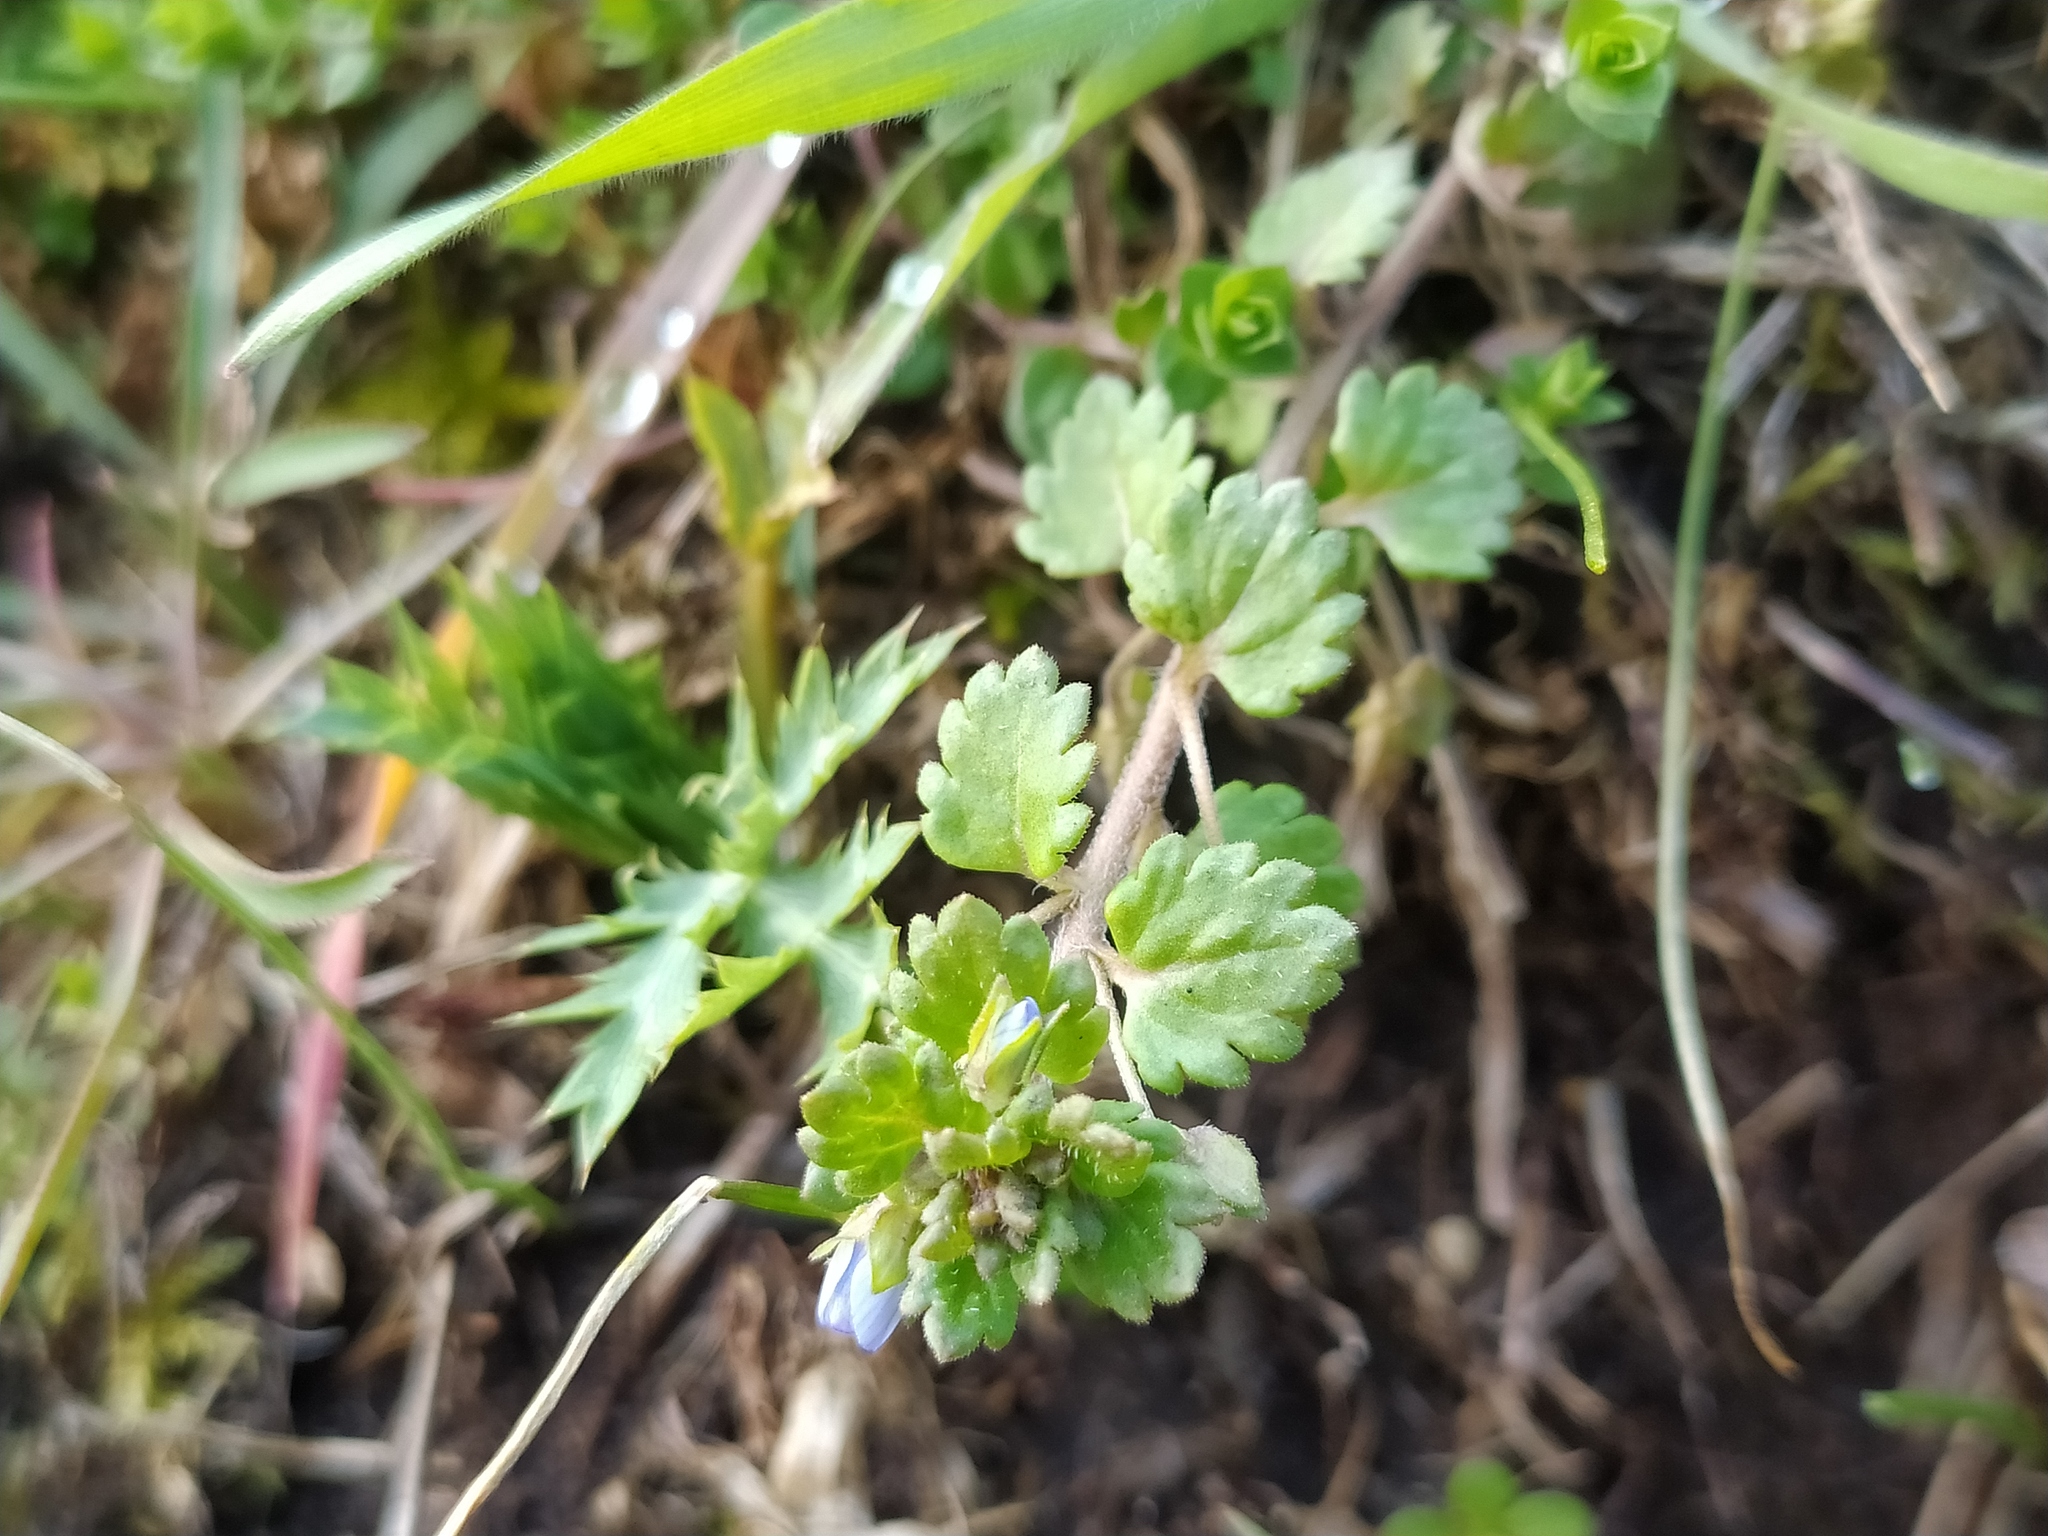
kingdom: Plantae
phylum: Tracheophyta
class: Magnoliopsida
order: Lamiales
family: Plantaginaceae
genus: Veronica
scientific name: Veronica polita
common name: Grey field-speedwell
